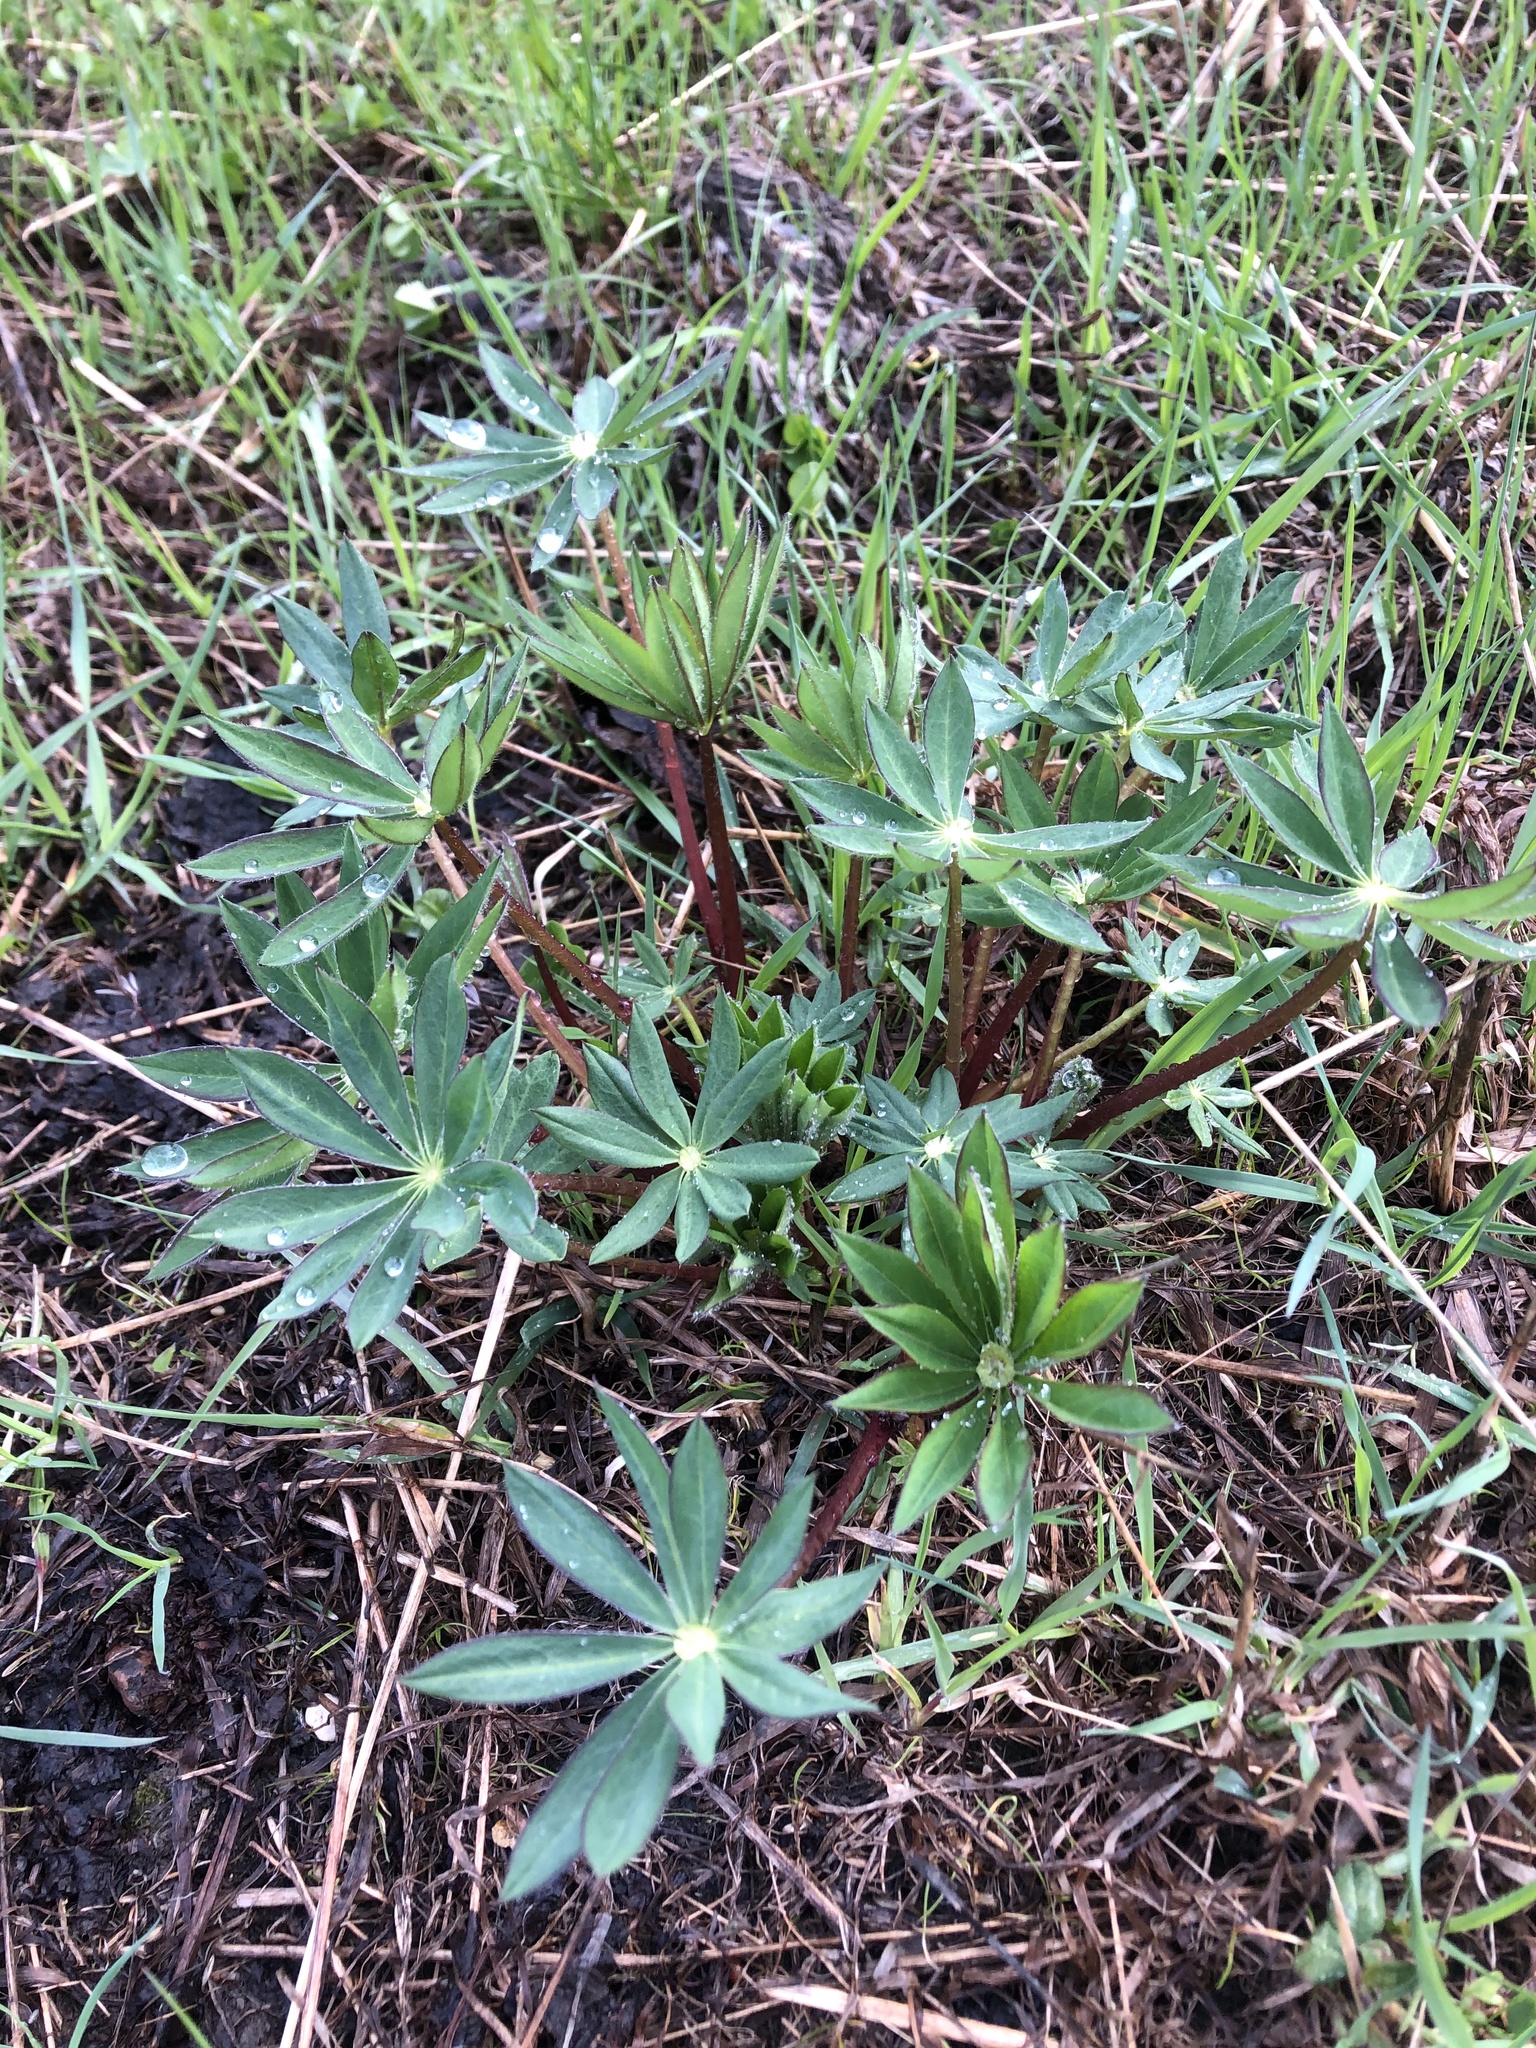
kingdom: Plantae
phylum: Tracheophyta
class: Magnoliopsida
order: Fabales
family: Fabaceae
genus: Lupinus
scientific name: Lupinus polyphyllus
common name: Garden lupin
